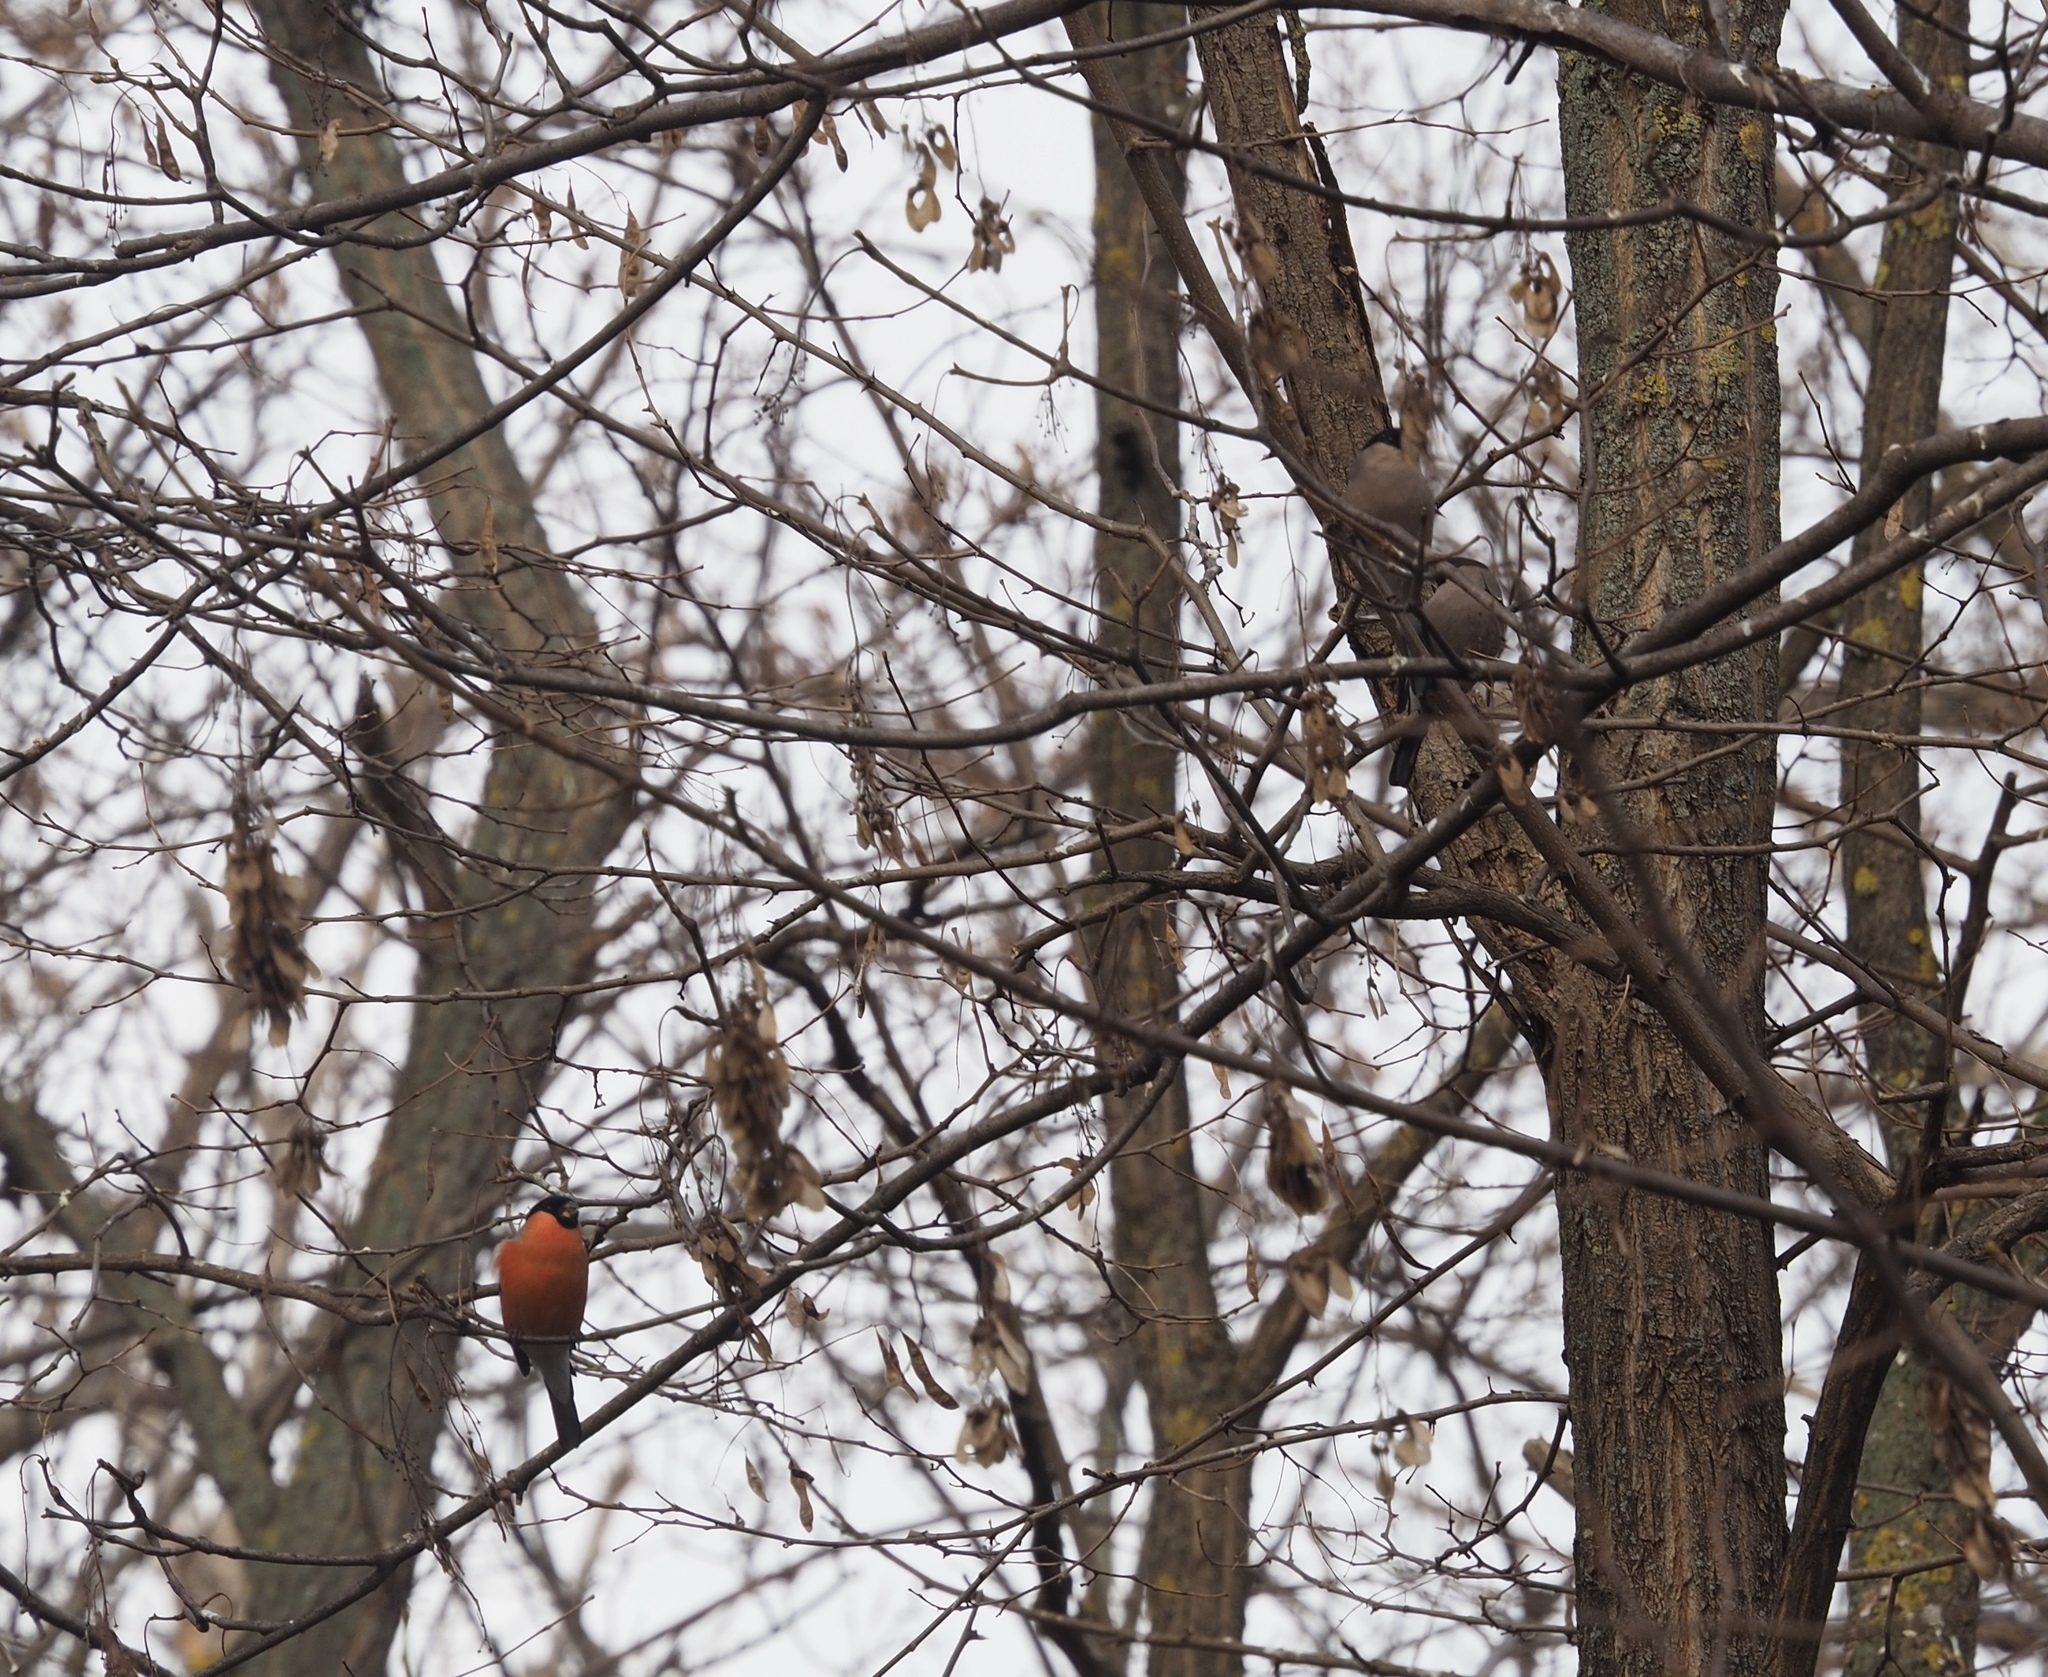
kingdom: Animalia
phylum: Chordata
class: Aves
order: Passeriformes
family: Fringillidae
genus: Pyrrhula
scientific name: Pyrrhula pyrrhula
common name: Eurasian bullfinch
